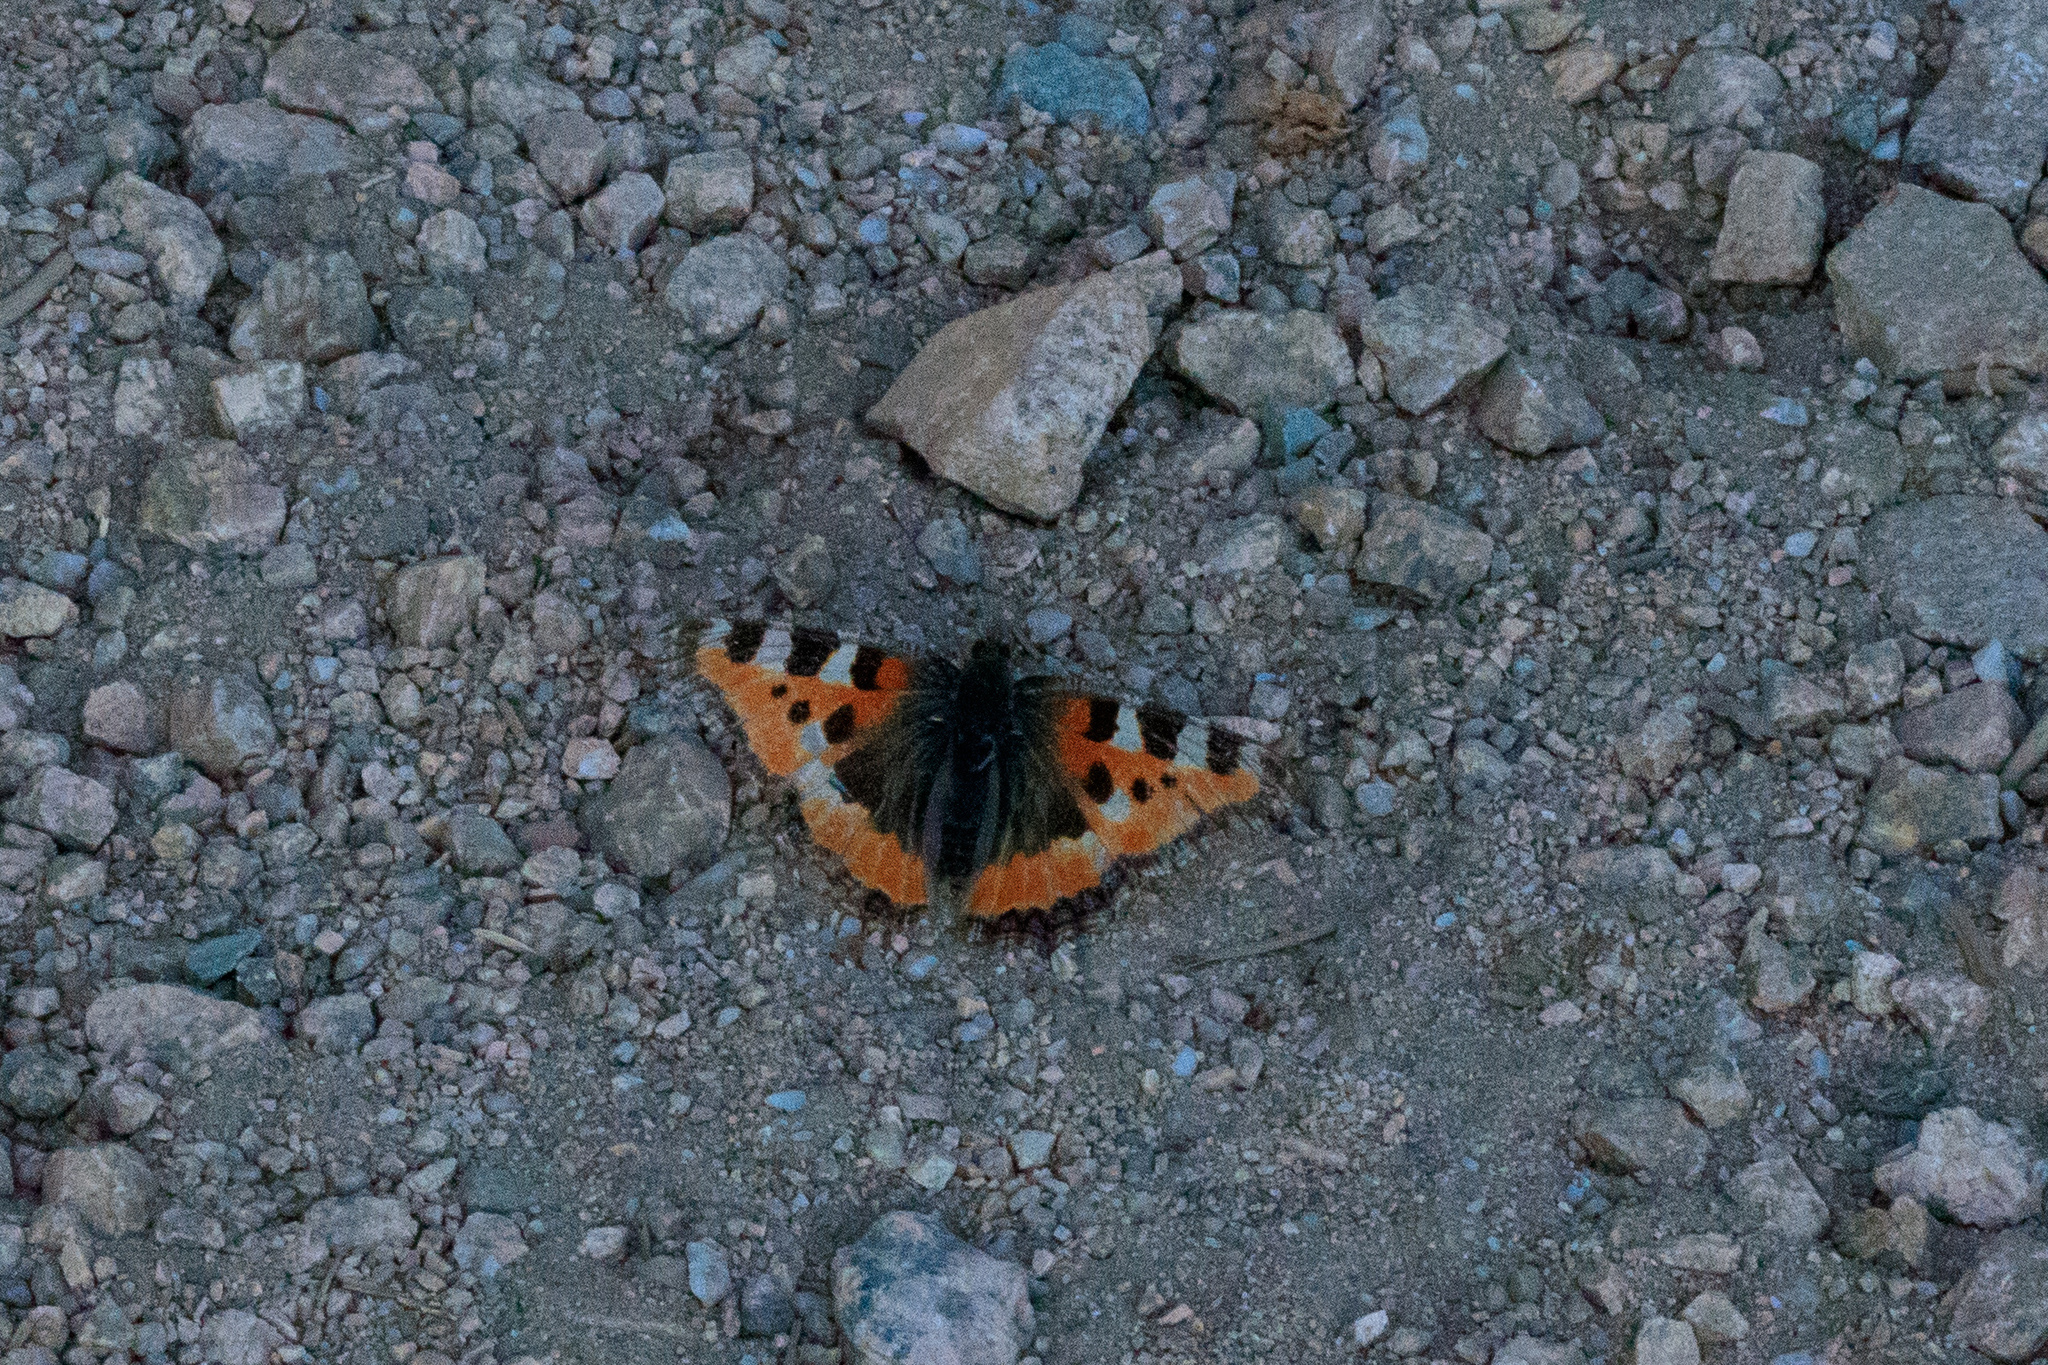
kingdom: Animalia
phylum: Arthropoda
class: Insecta
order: Lepidoptera
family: Nymphalidae
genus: Aglais
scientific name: Aglais urticae
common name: Small tortoiseshell
